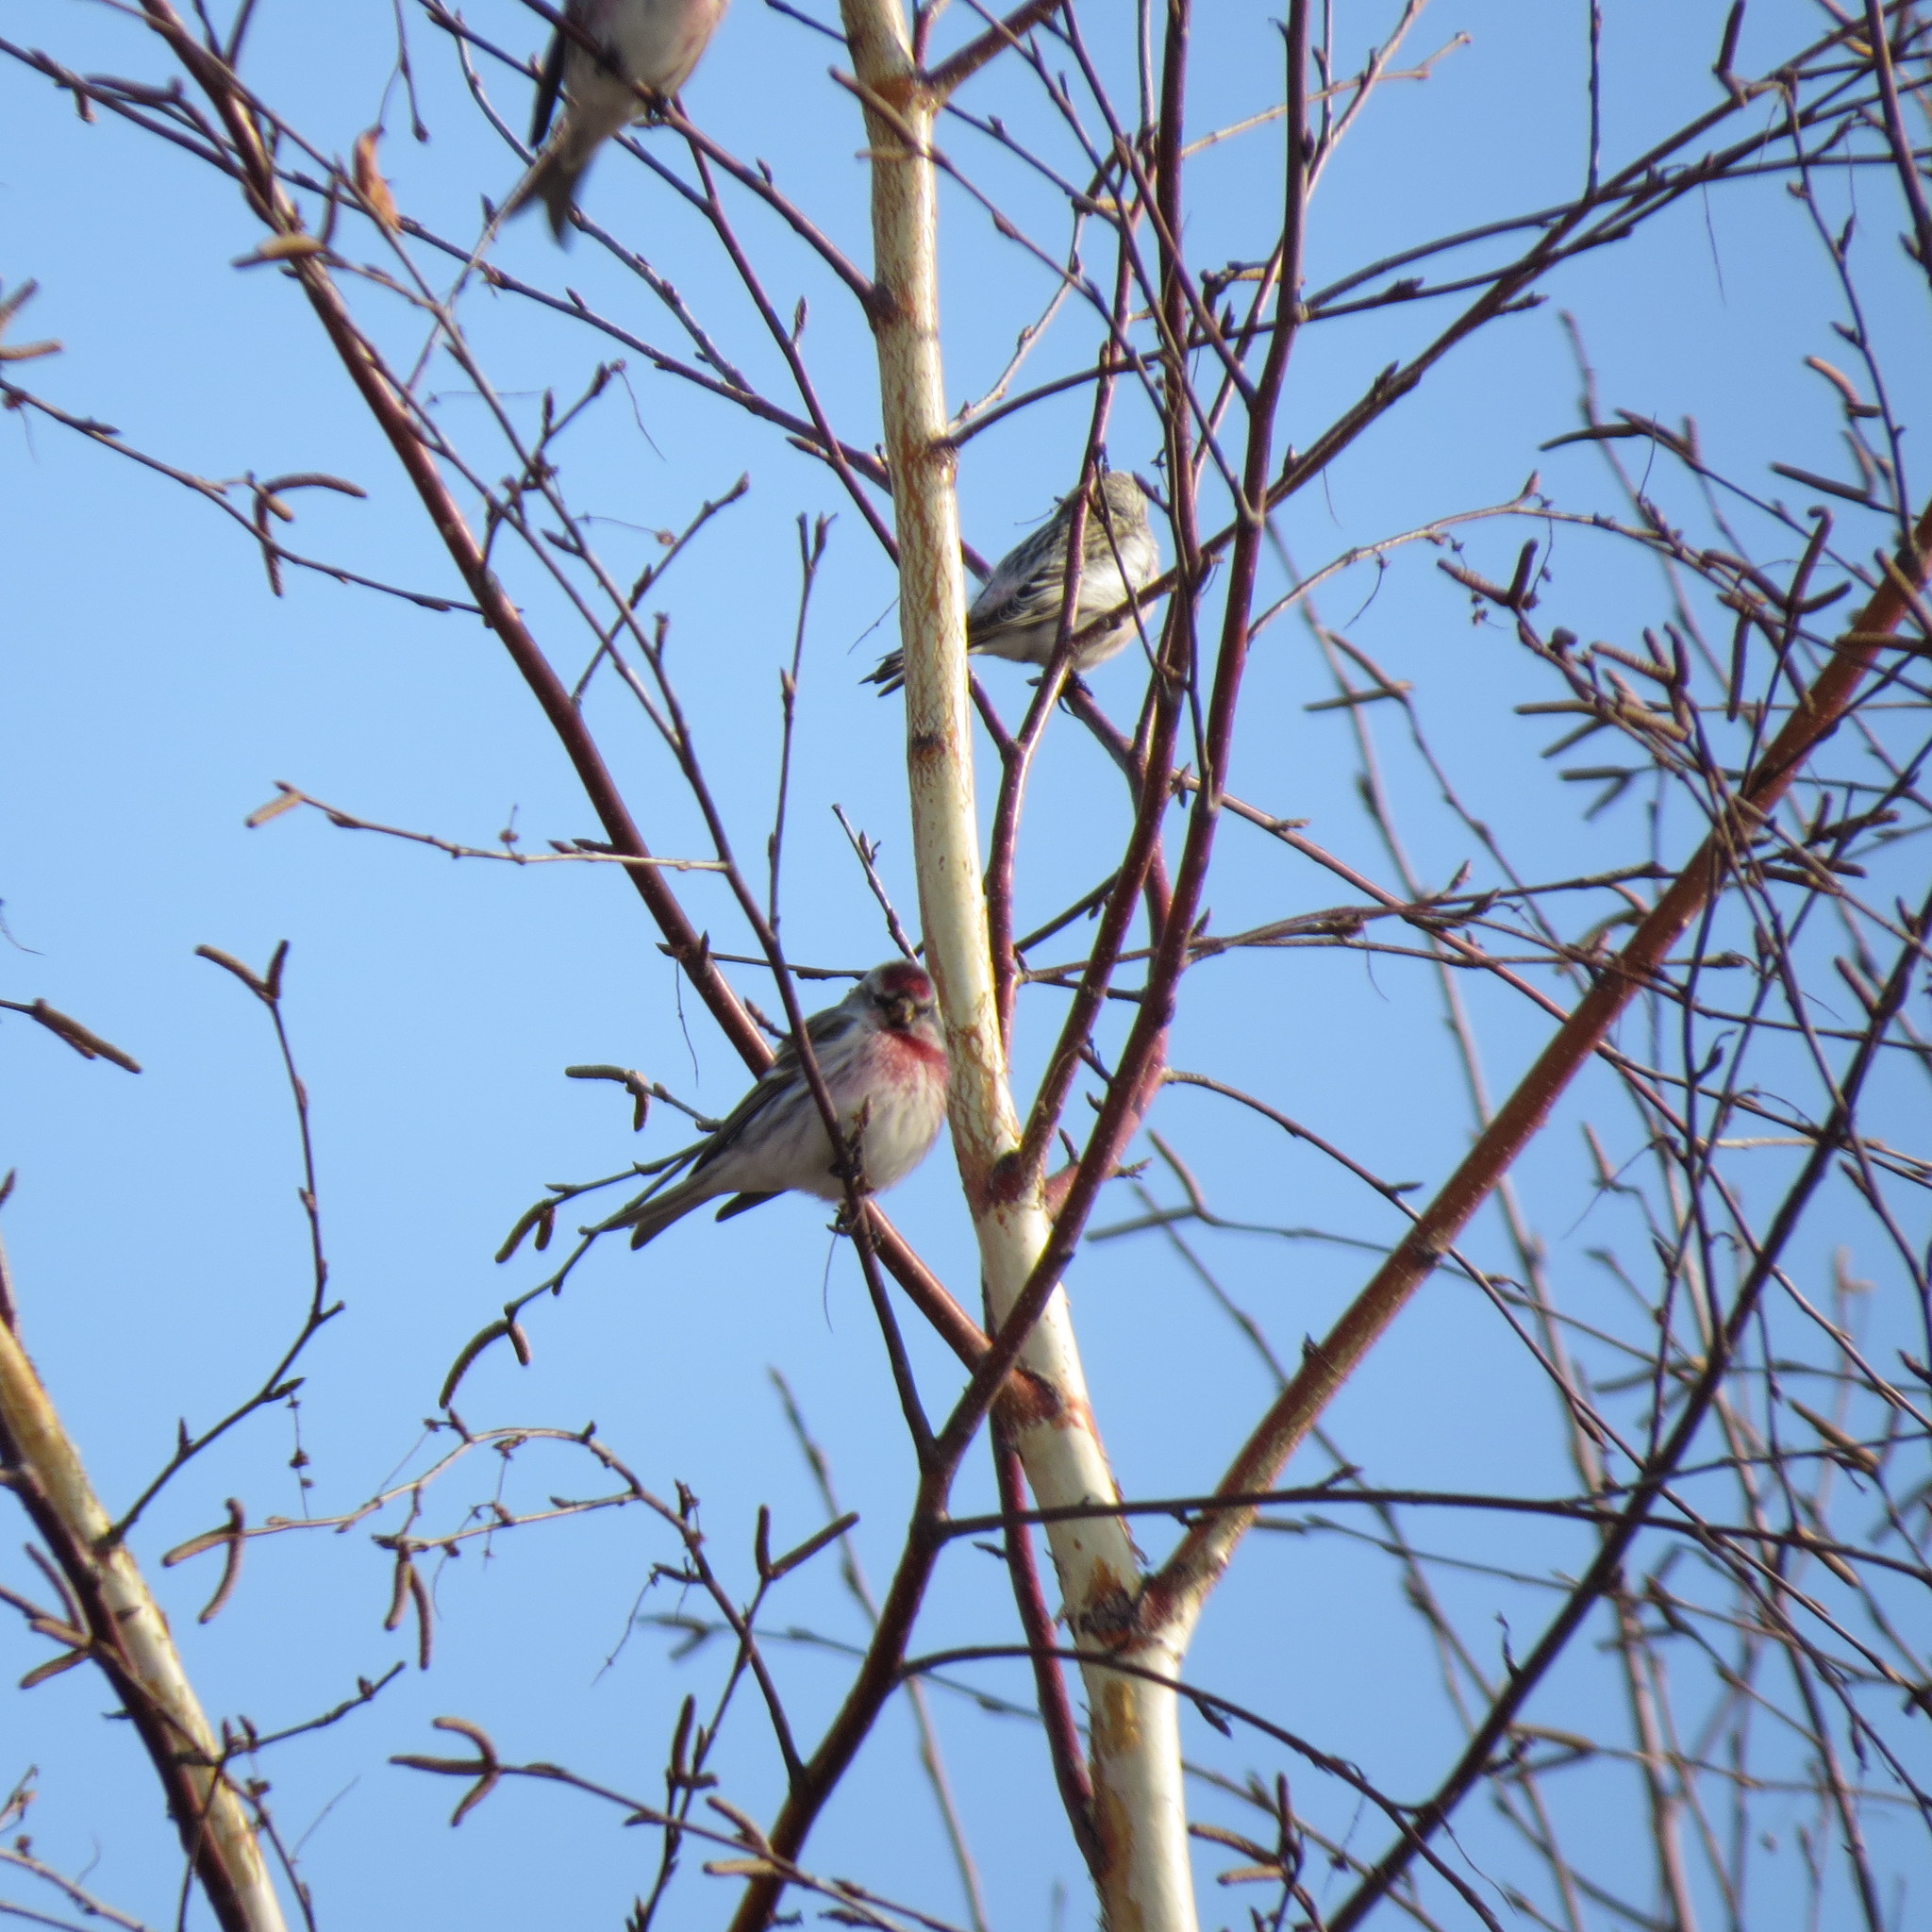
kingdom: Animalia
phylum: Chordata
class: Aves
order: Passeriformes
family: Fringillidae
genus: Acanthis
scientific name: Acanthis flammea
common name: Common redpoll
